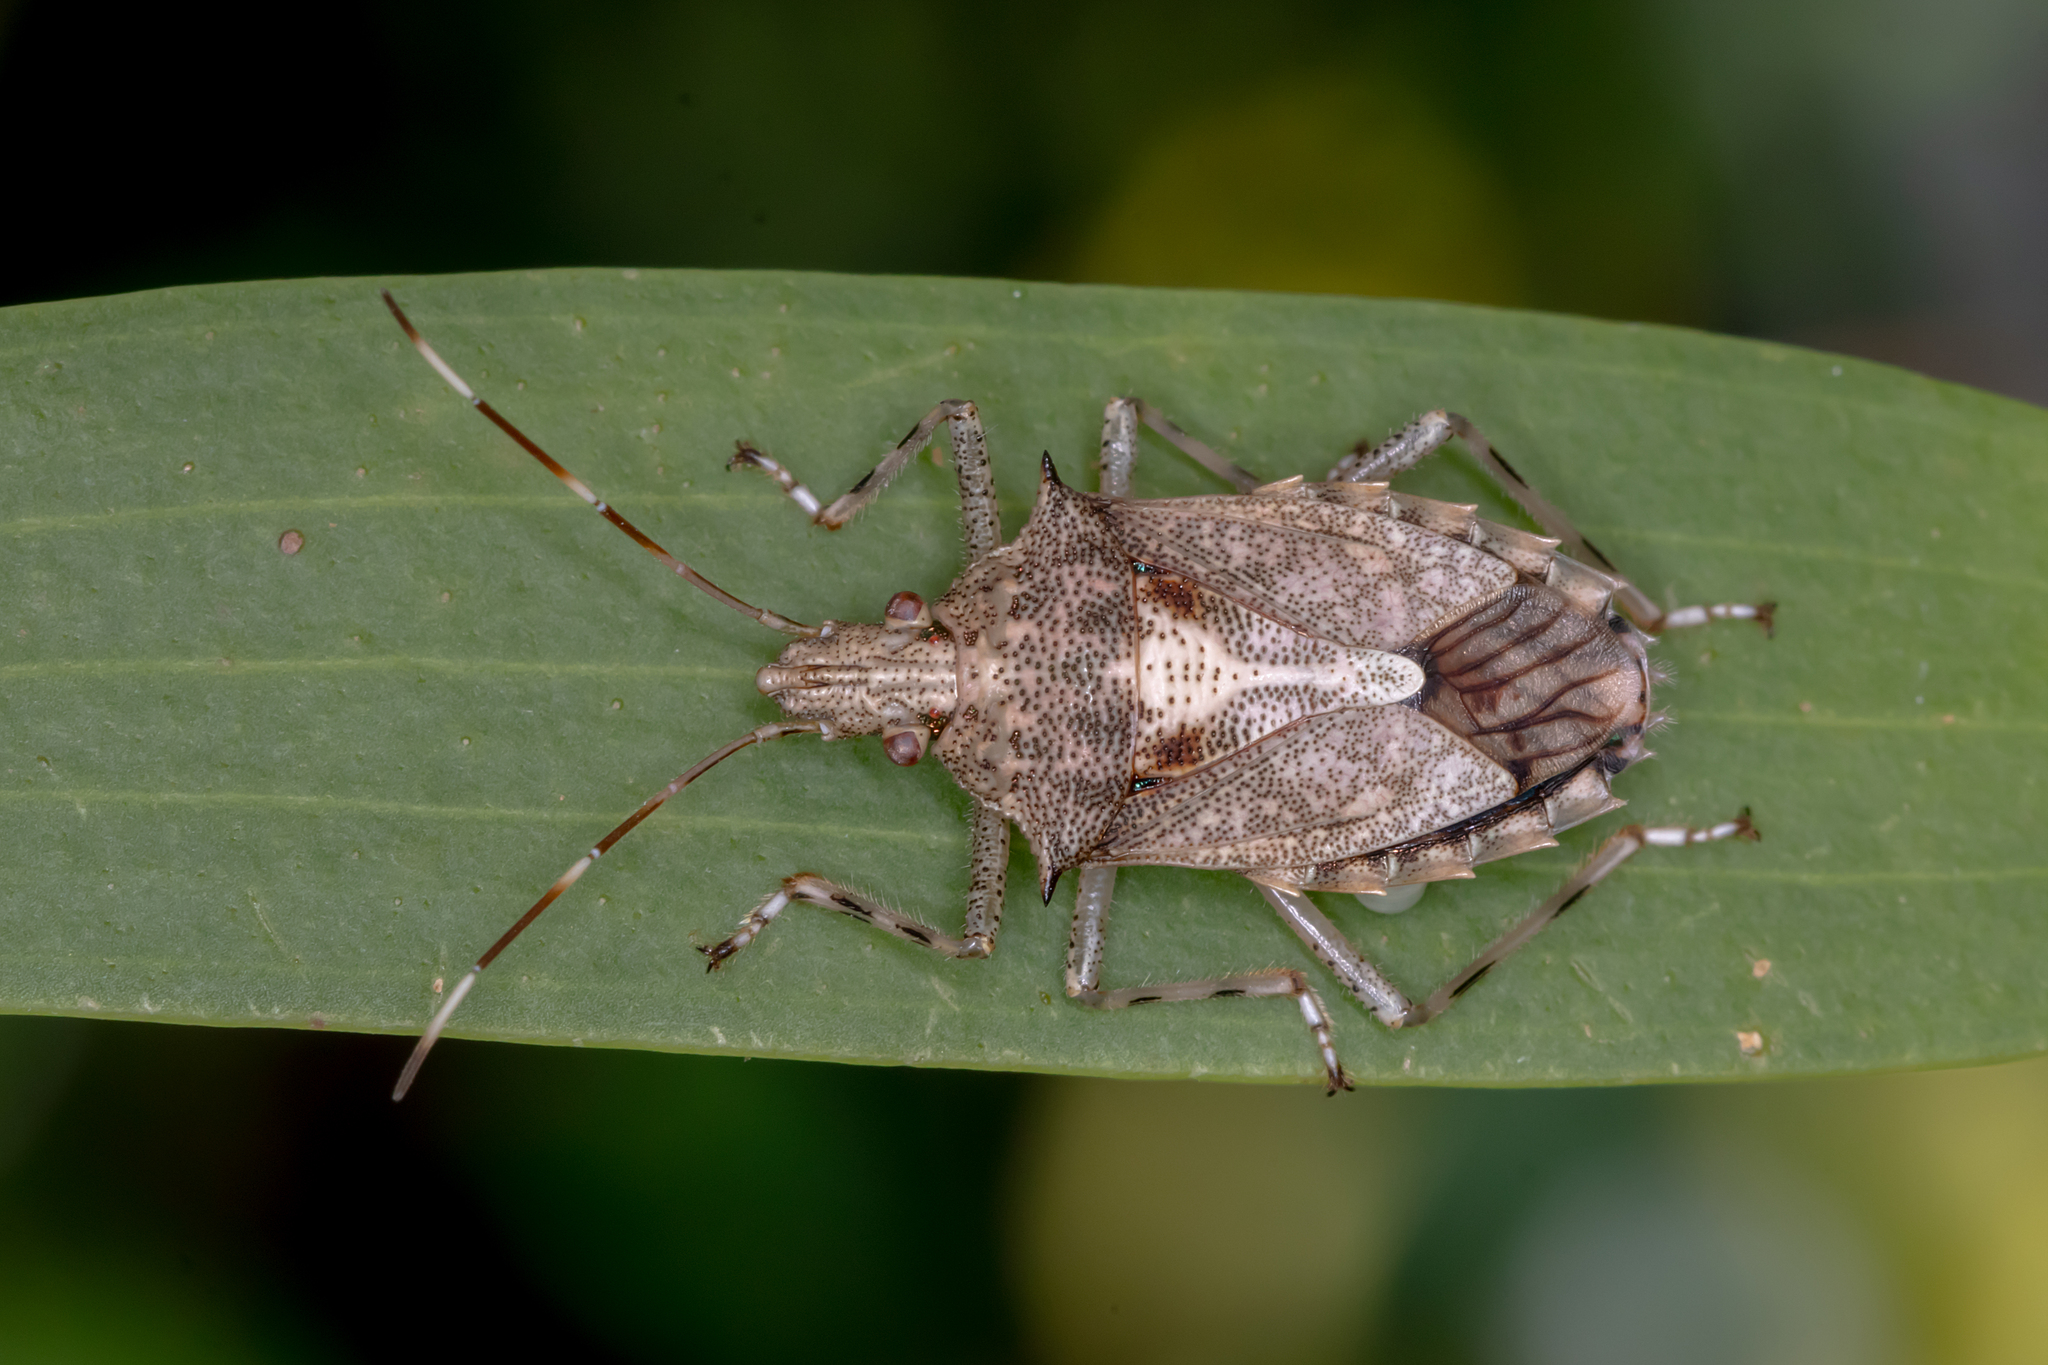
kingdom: Animalia
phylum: Arthropoda
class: Insecta
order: Hemiptera
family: Pentatomidae
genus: Bromocoris
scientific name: Bromocoris
